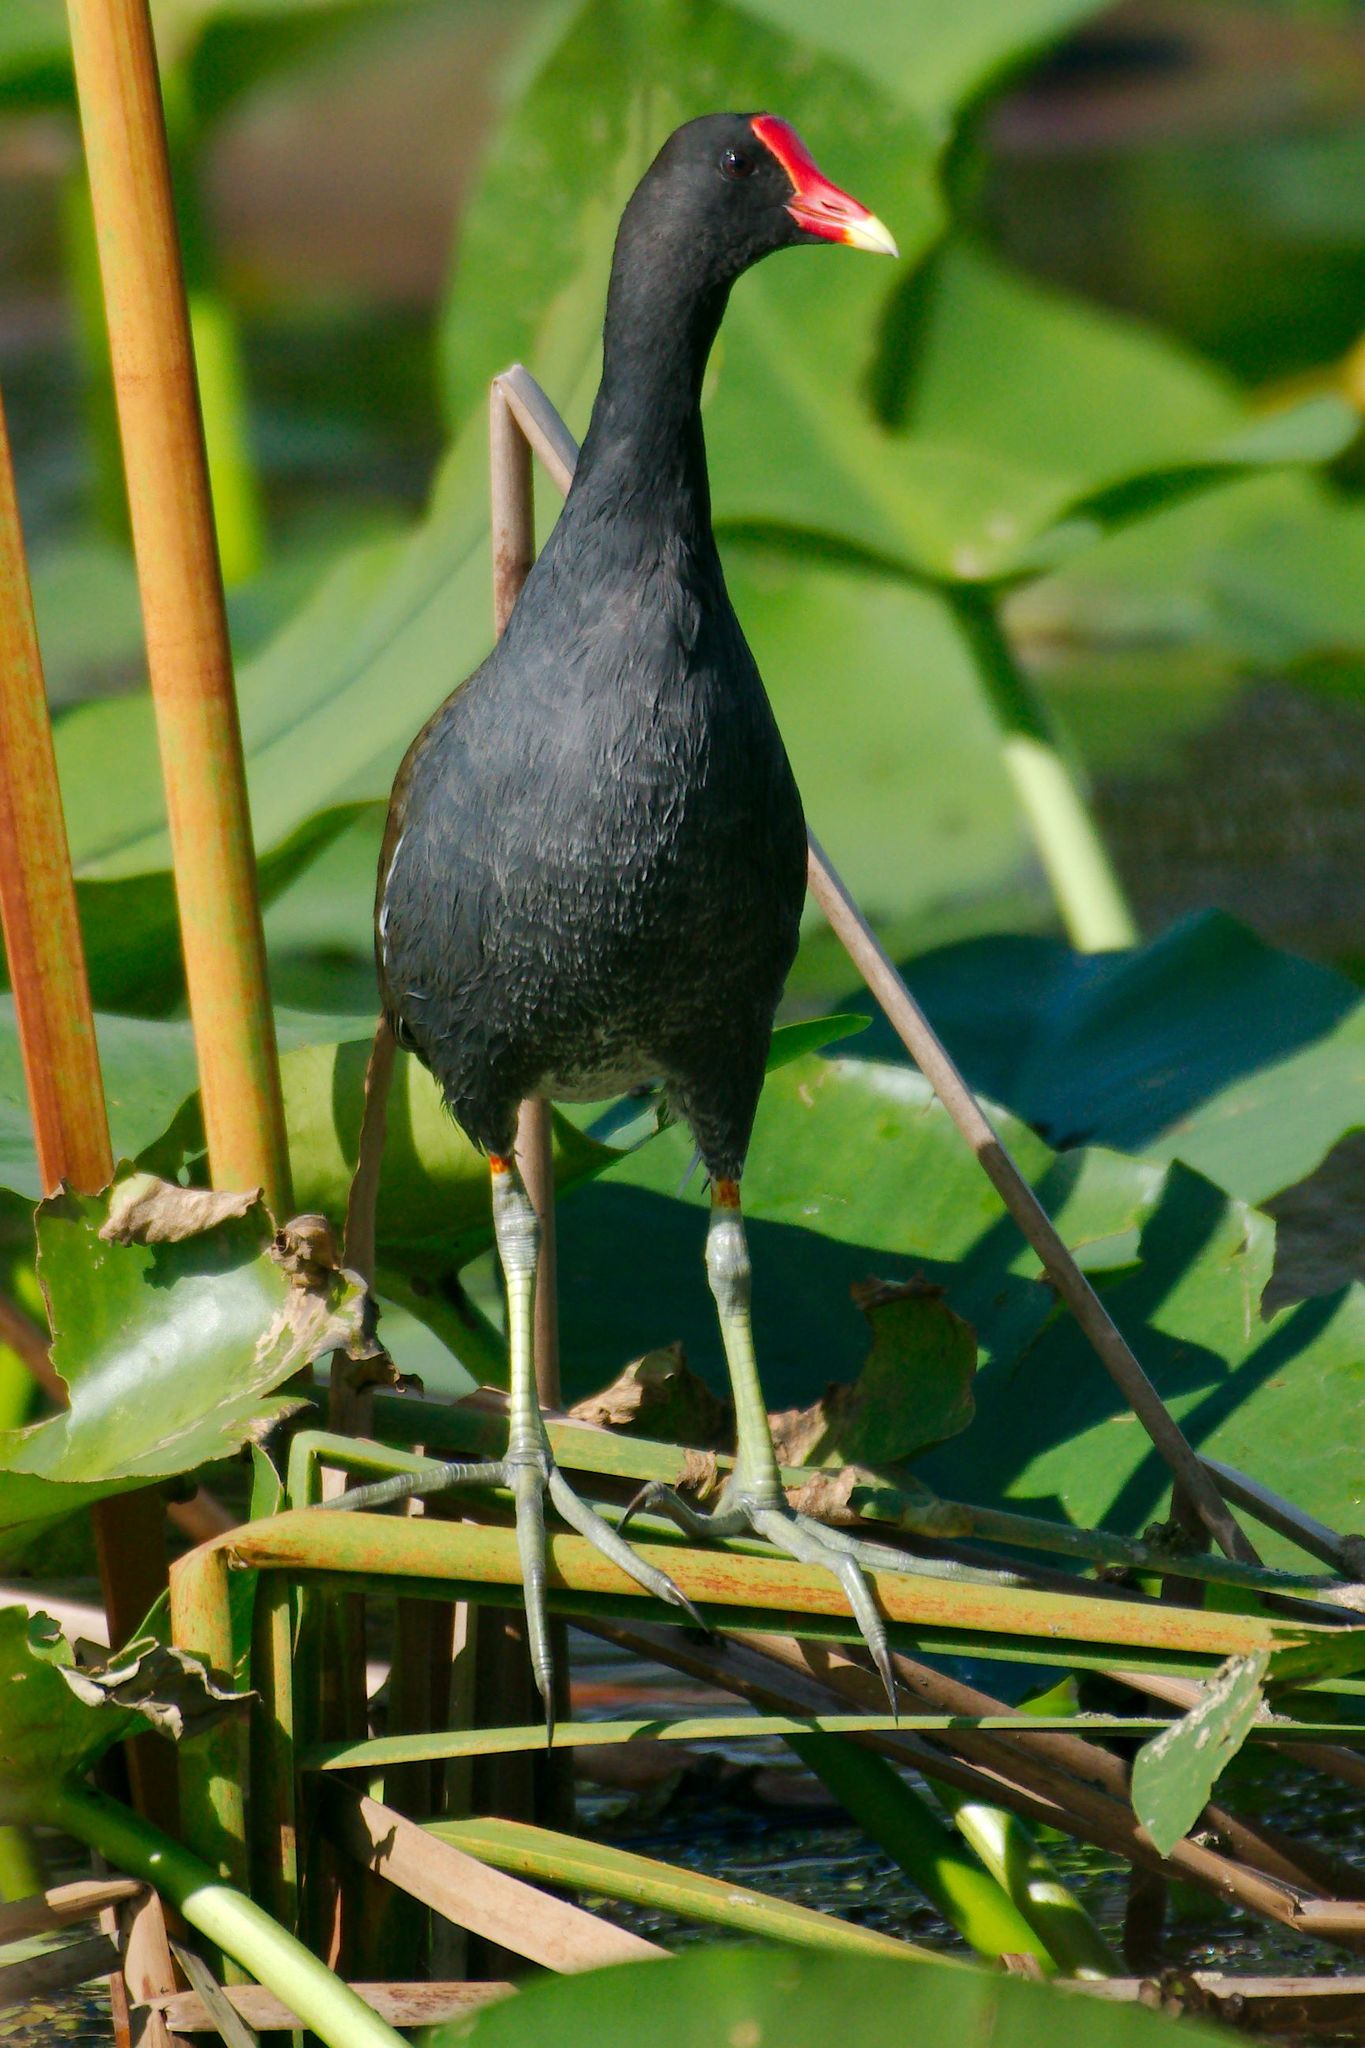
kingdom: Animalia
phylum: Chordata
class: Aves
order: Gruiformes
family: Rallidae
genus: Gallinula
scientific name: Gallinula chloropus
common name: Common moorhen
